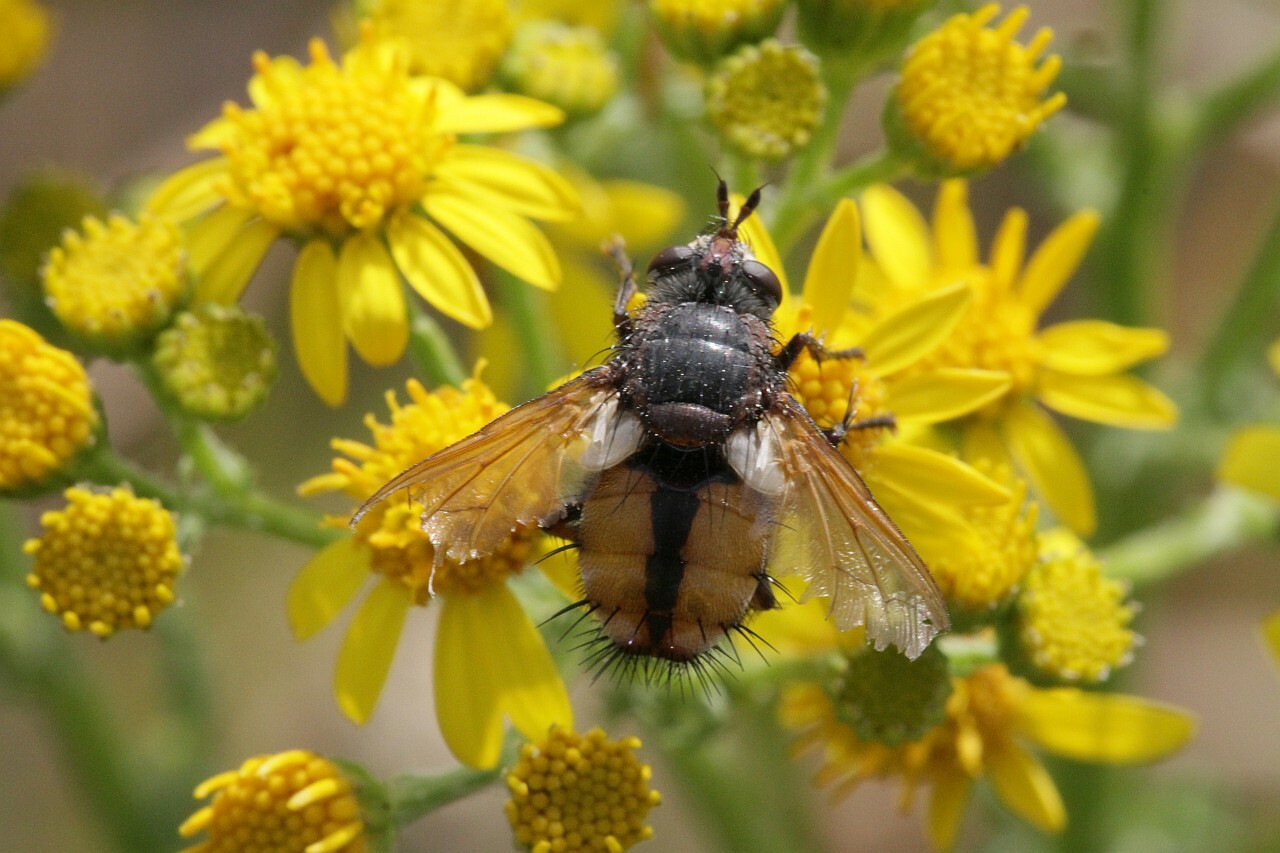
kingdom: Animalia
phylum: Arthropoda
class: Insecta
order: Diptera
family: Tachinidae
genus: Tachina
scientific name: Tachina fera
